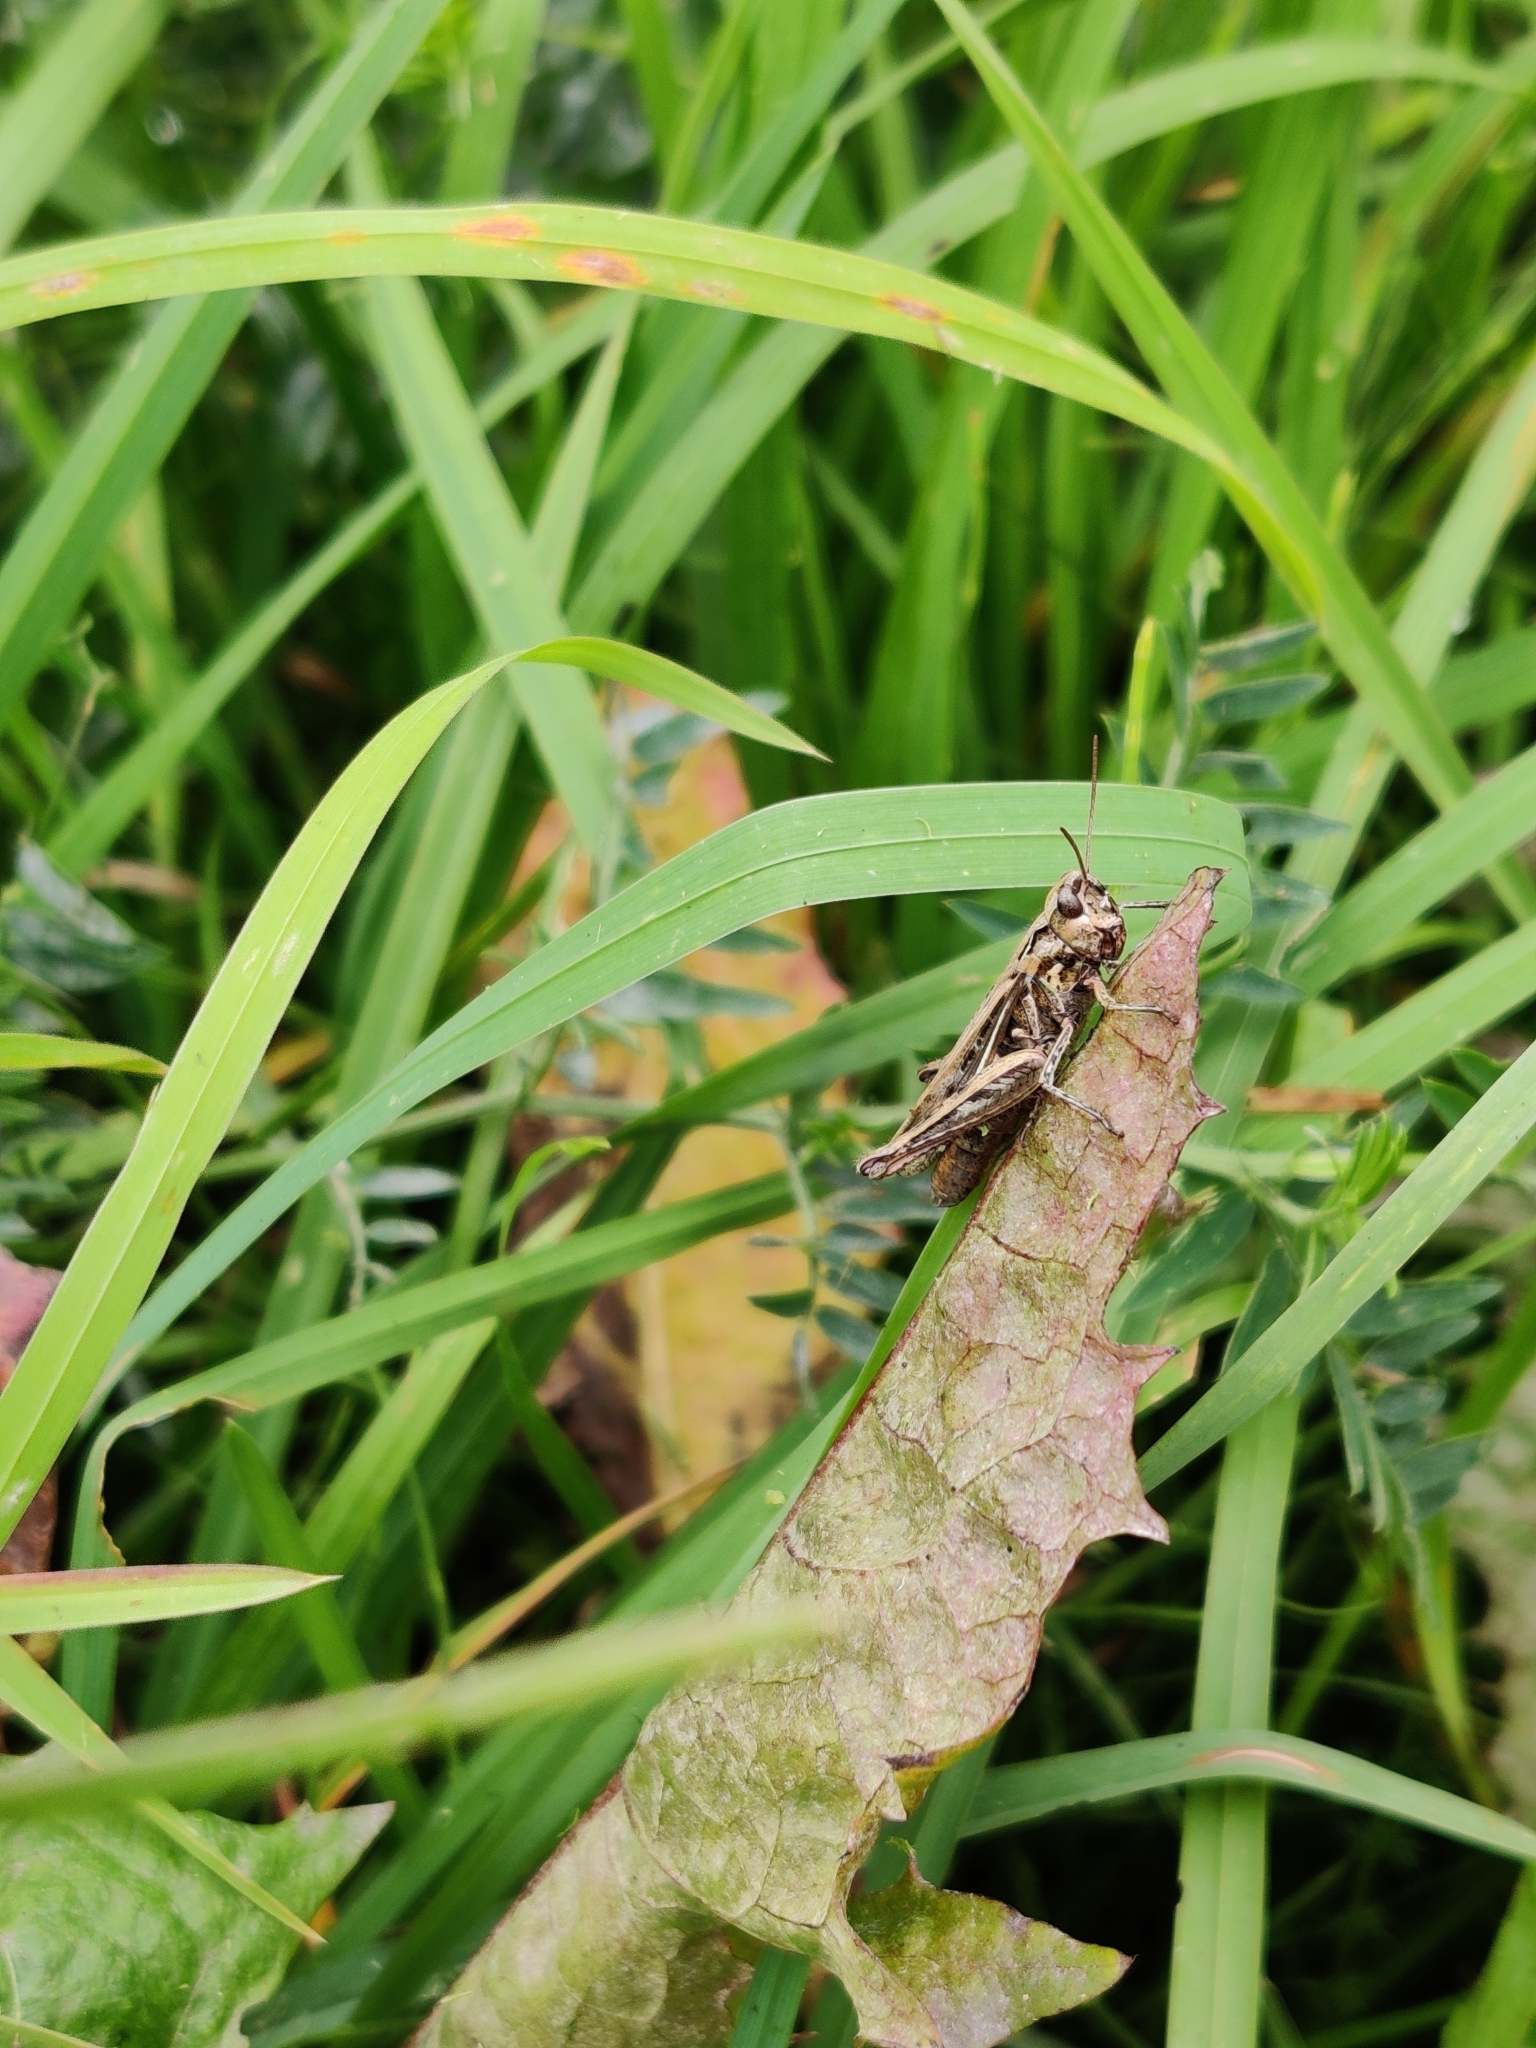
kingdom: Animalia
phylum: Arthropoda
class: Insecta
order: Orthoptera
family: Acrididae
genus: Glyptobothrus
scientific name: Glyptobothrus
